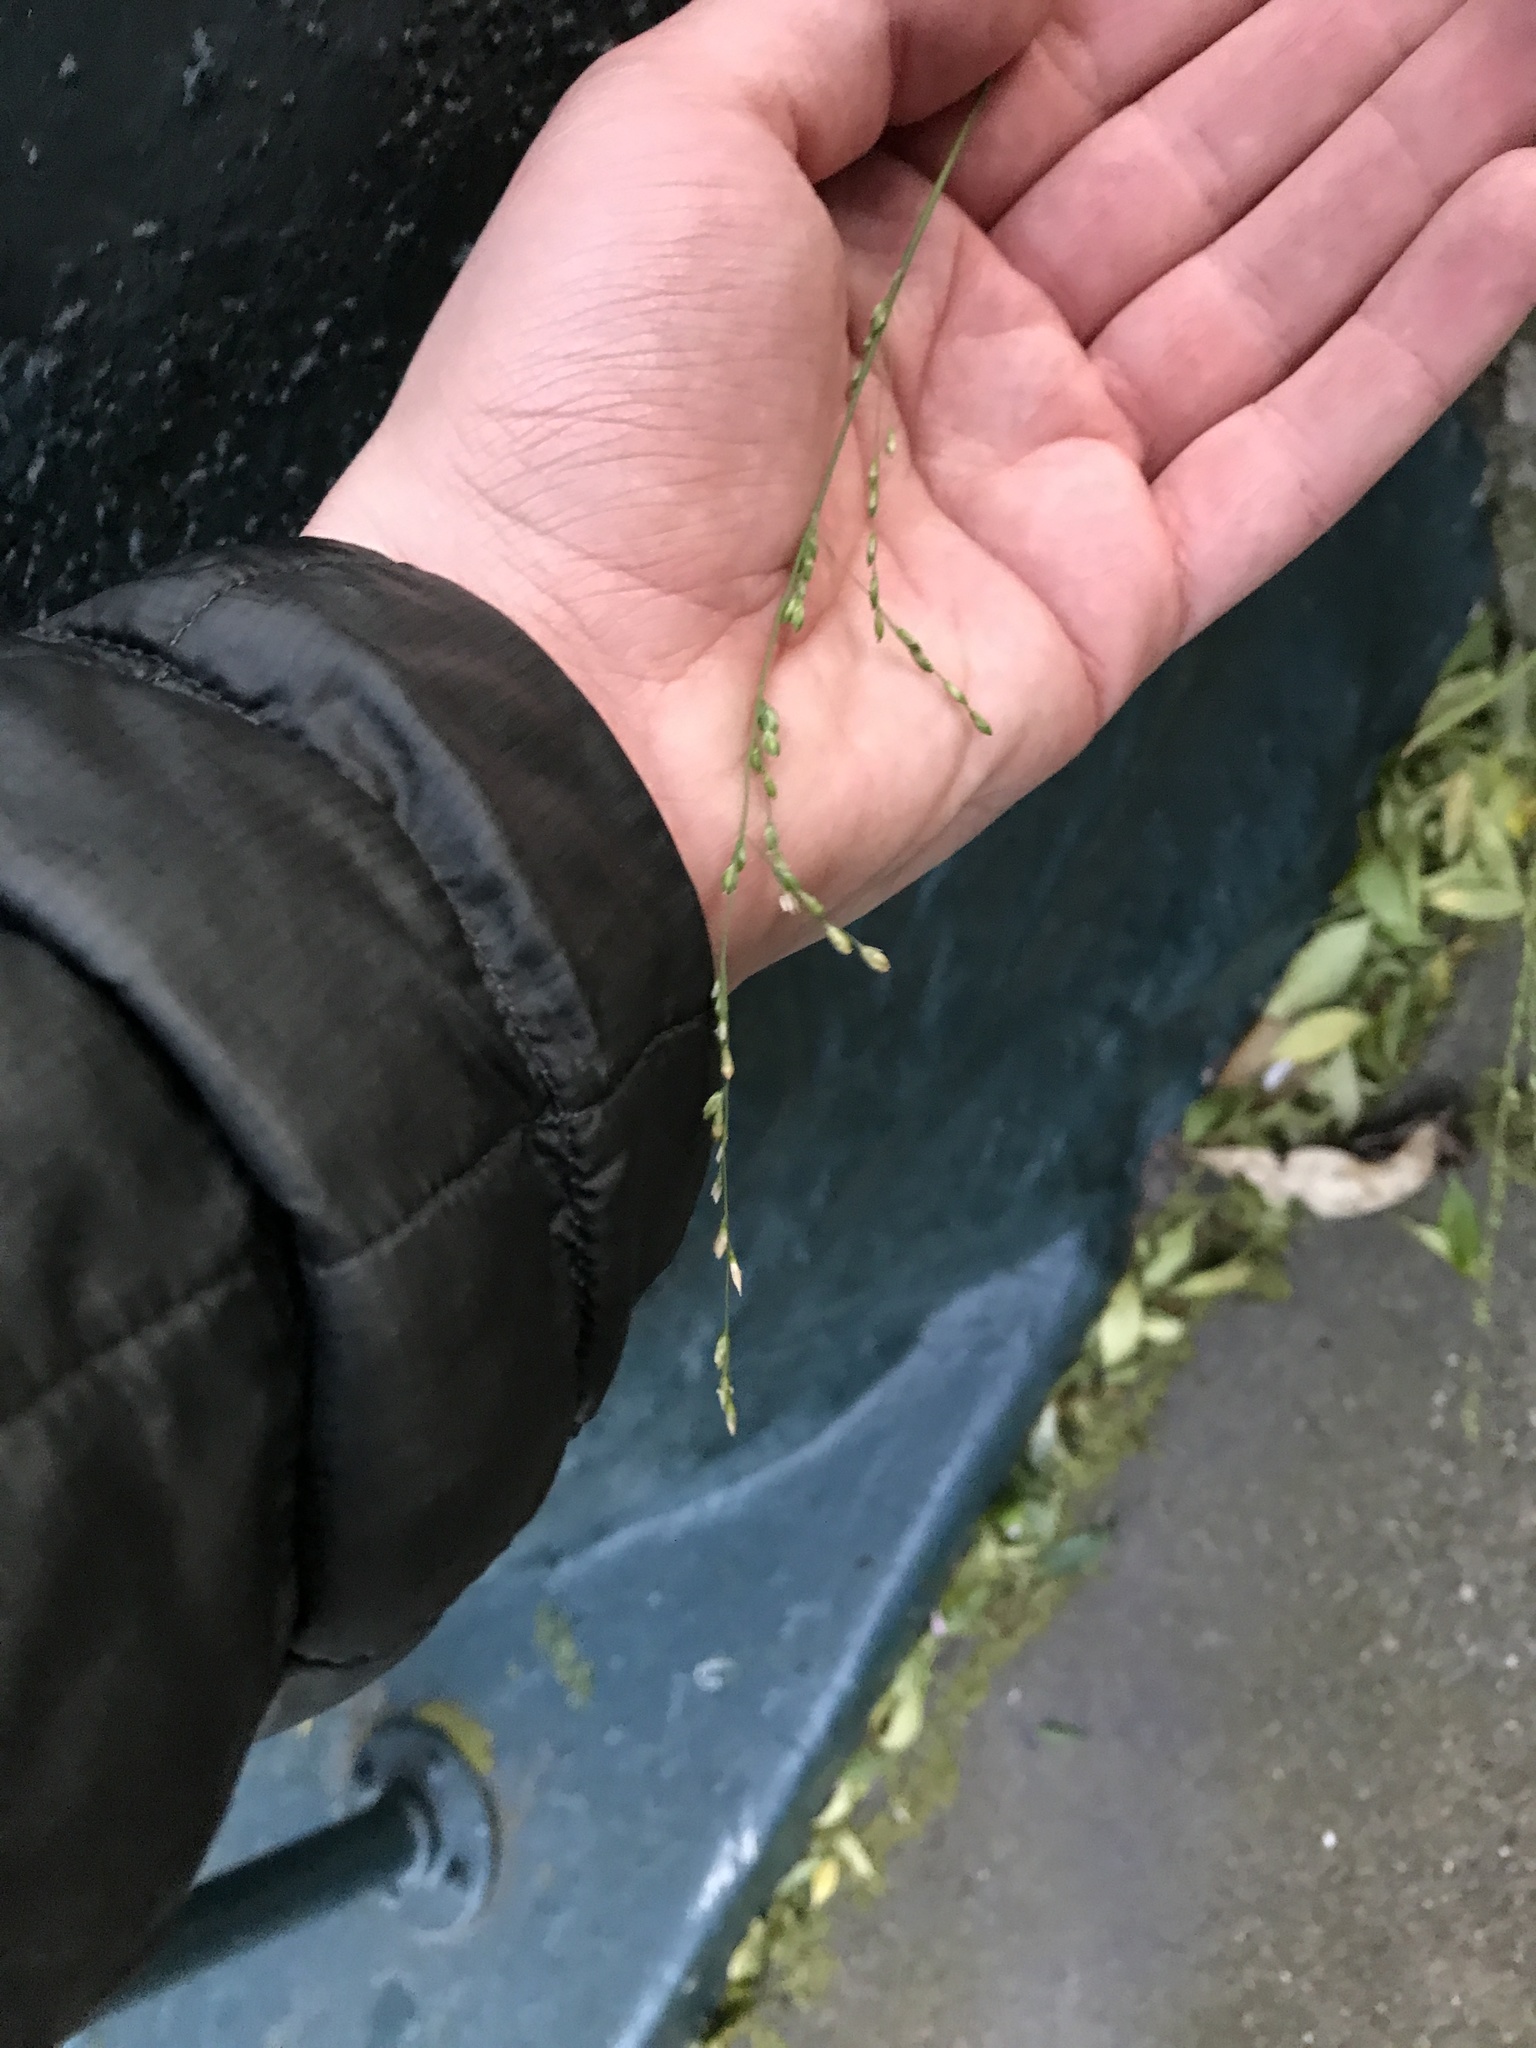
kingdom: Plantae
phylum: Tracheophyta
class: Liliopsida
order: Poales
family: Poaceae
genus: Ehrharta
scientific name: Ehrharta erecta
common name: Panic veldtgrass
